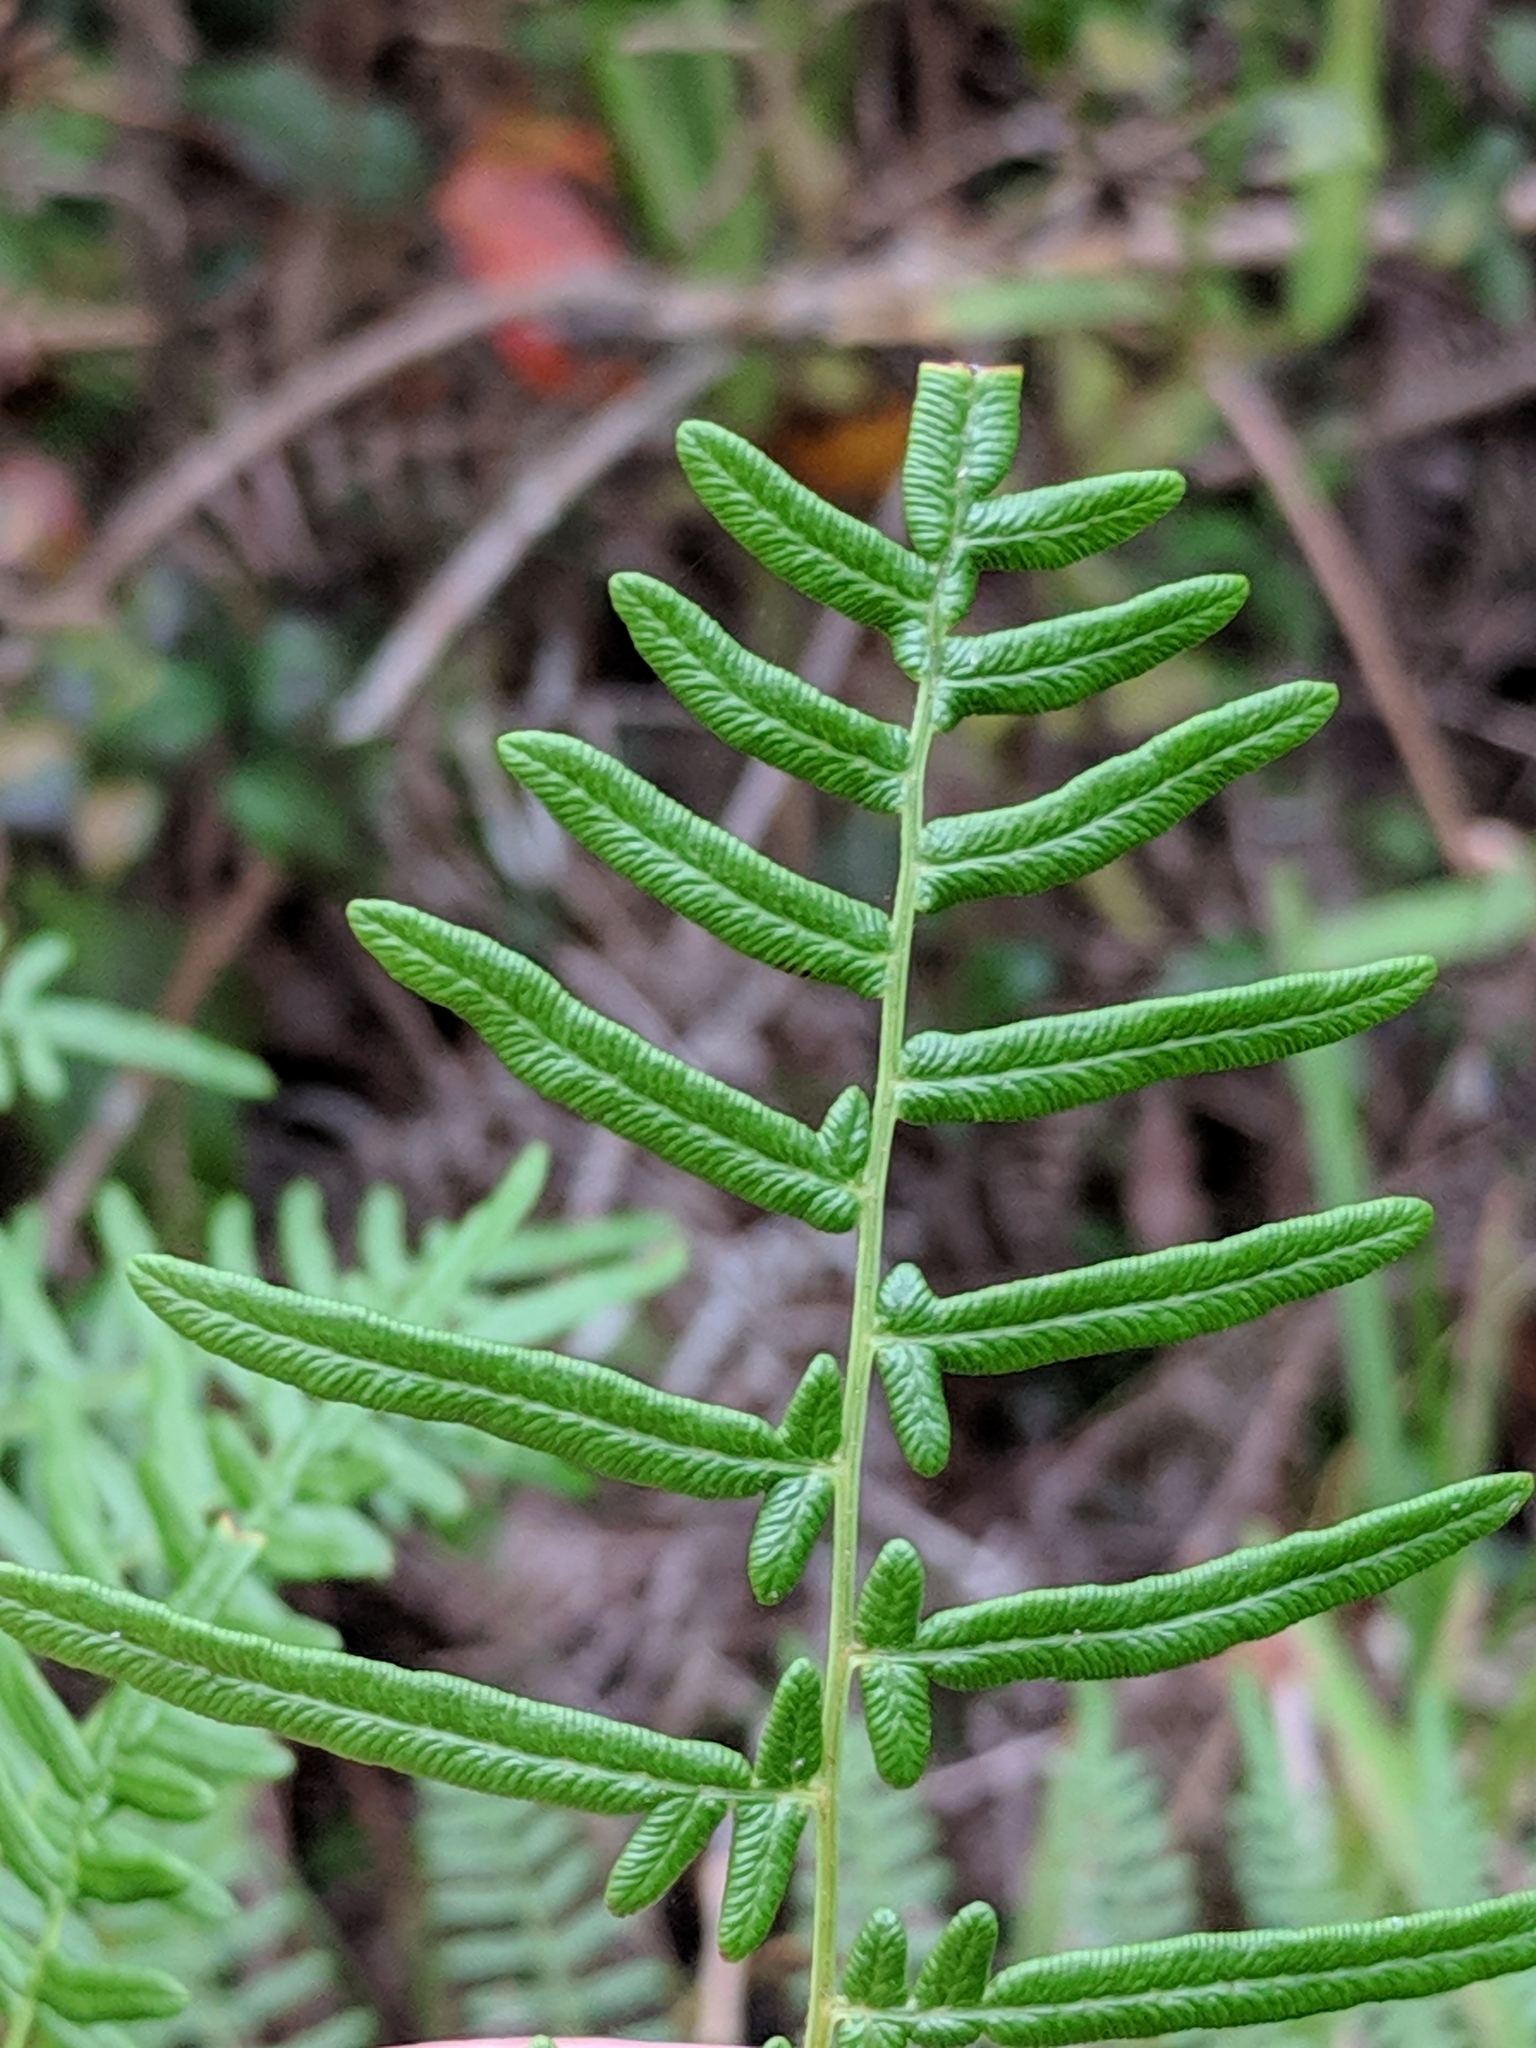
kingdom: Plantae
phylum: Tracheophyta
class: Polypodiopsida
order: Polypodiales
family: Dennstaedtiaceae
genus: Pteridium
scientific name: Pteridium caudatum
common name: Southern bracken fern
